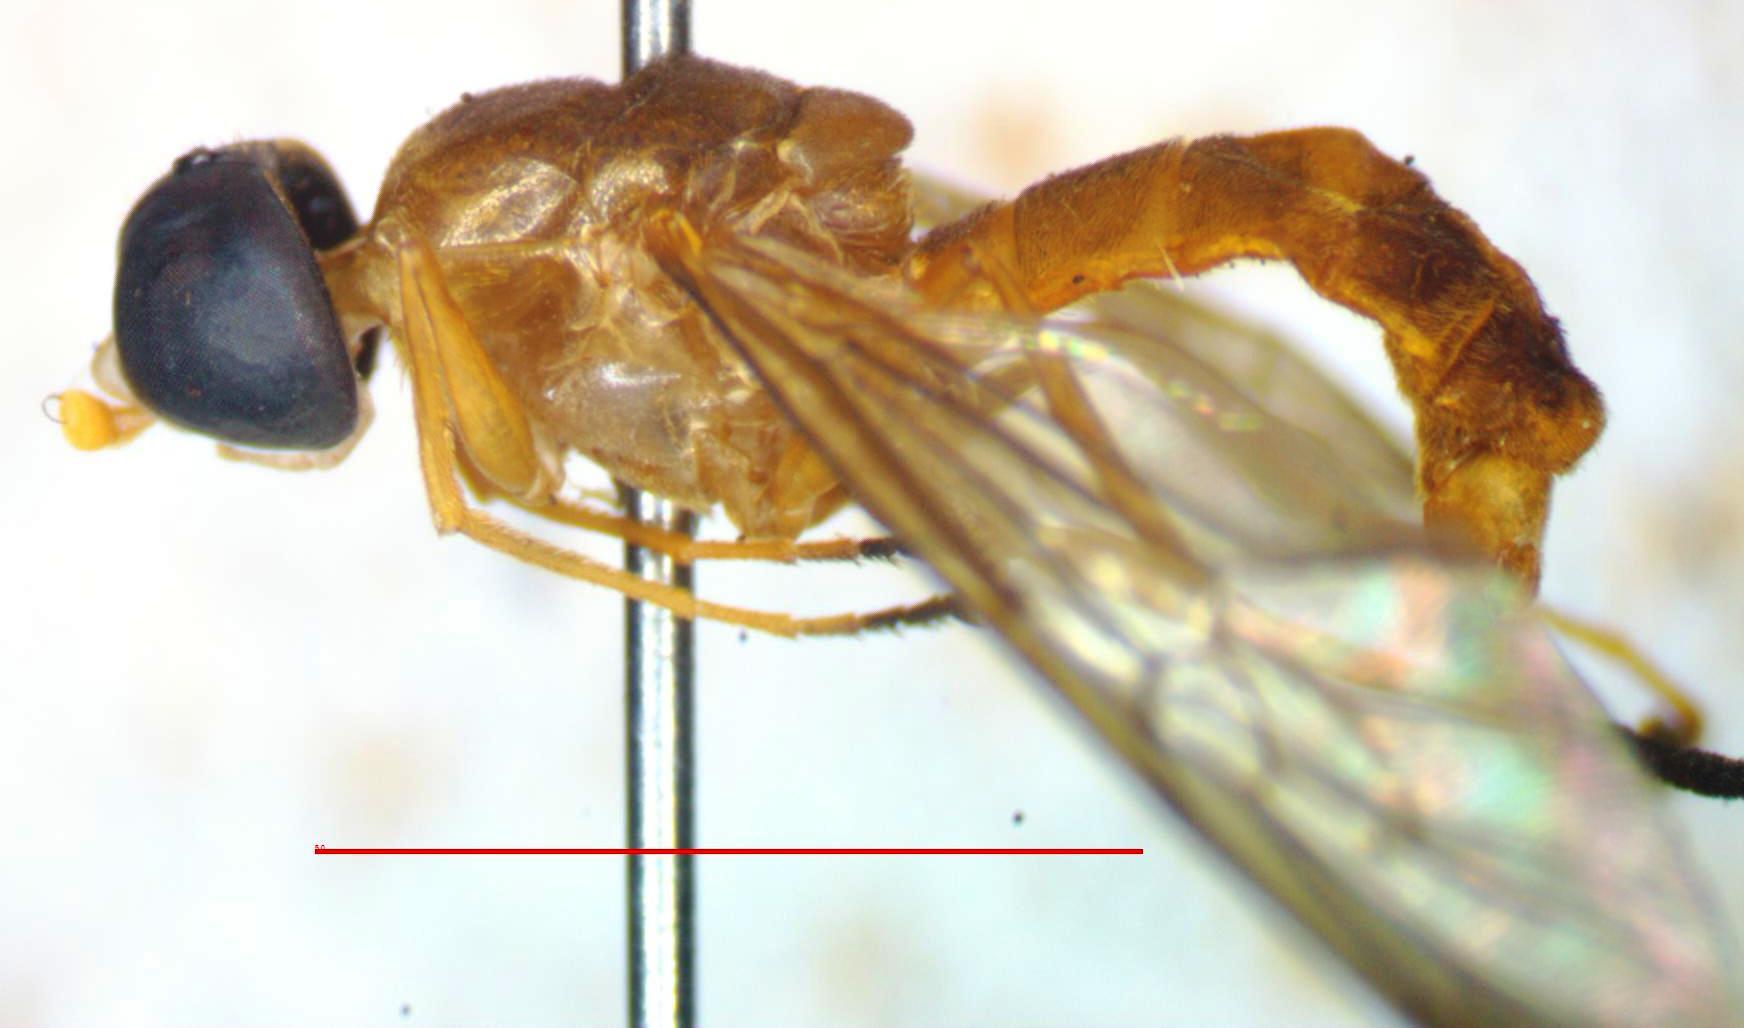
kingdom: Animalia
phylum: Arthropoda
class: Insecta
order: Diptera
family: Stratiomyidae
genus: Ptecticus
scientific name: Ptecticus nigrifrons
